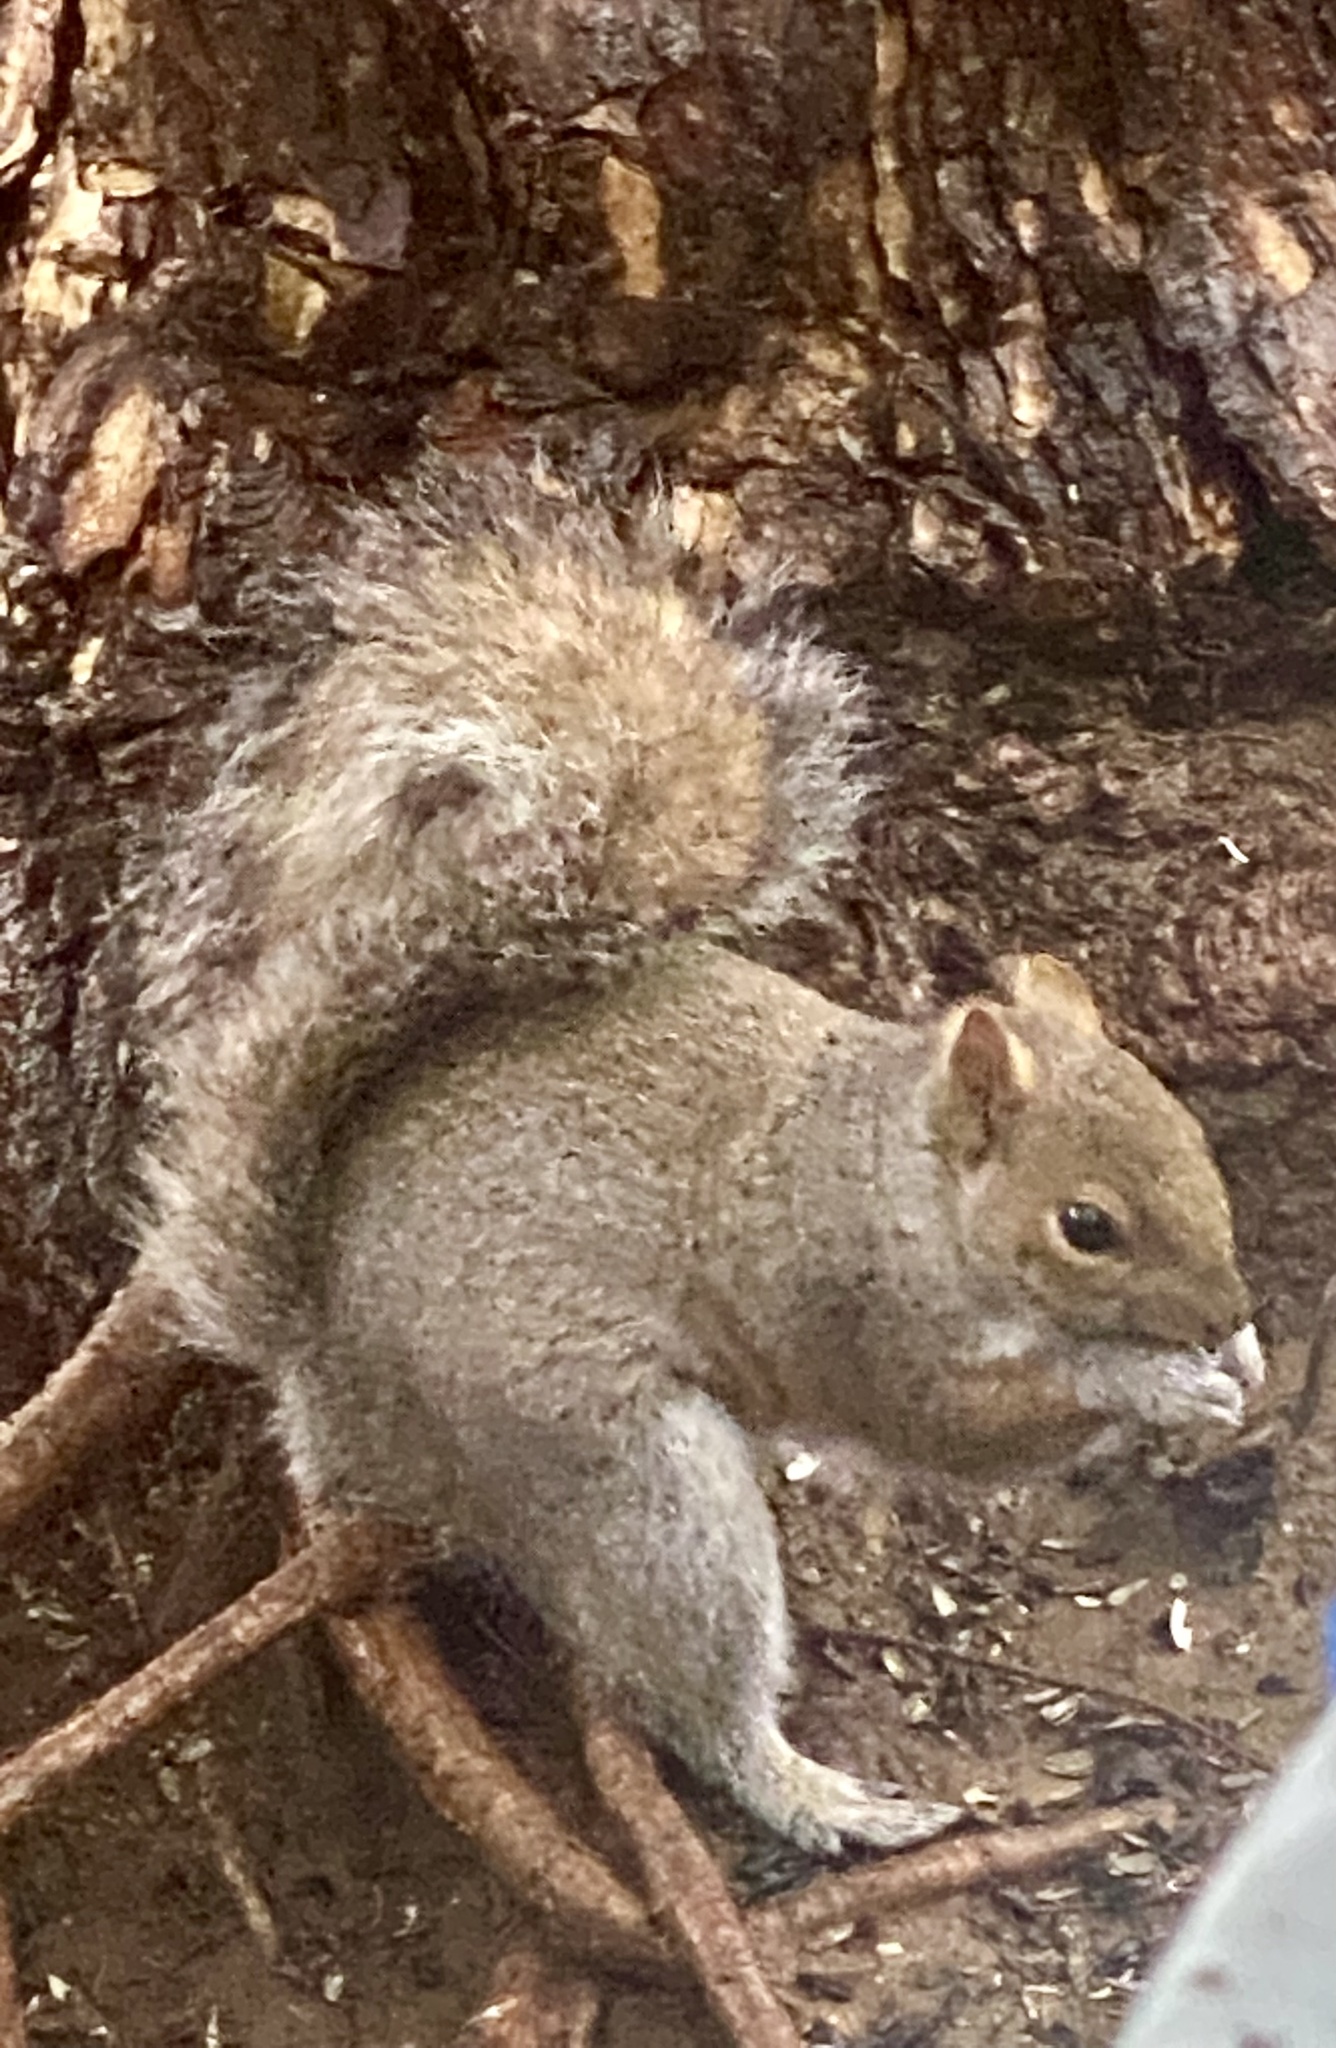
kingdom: Animalia
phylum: Chordata
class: Mammalia
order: Rodentia
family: Sciuridae
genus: Sciurus
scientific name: Sciurus carolinensis
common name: Eastern gray squirrel
